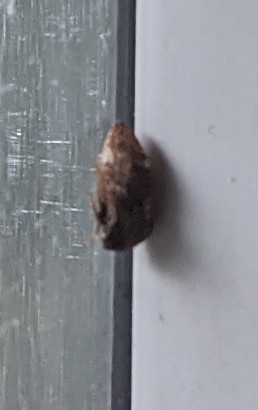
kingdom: Animalia
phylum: Arthropoda
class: Insecta
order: Hemiptera
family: Membracidae
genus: Publilia
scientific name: Publilia concava
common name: Aster treehopper
